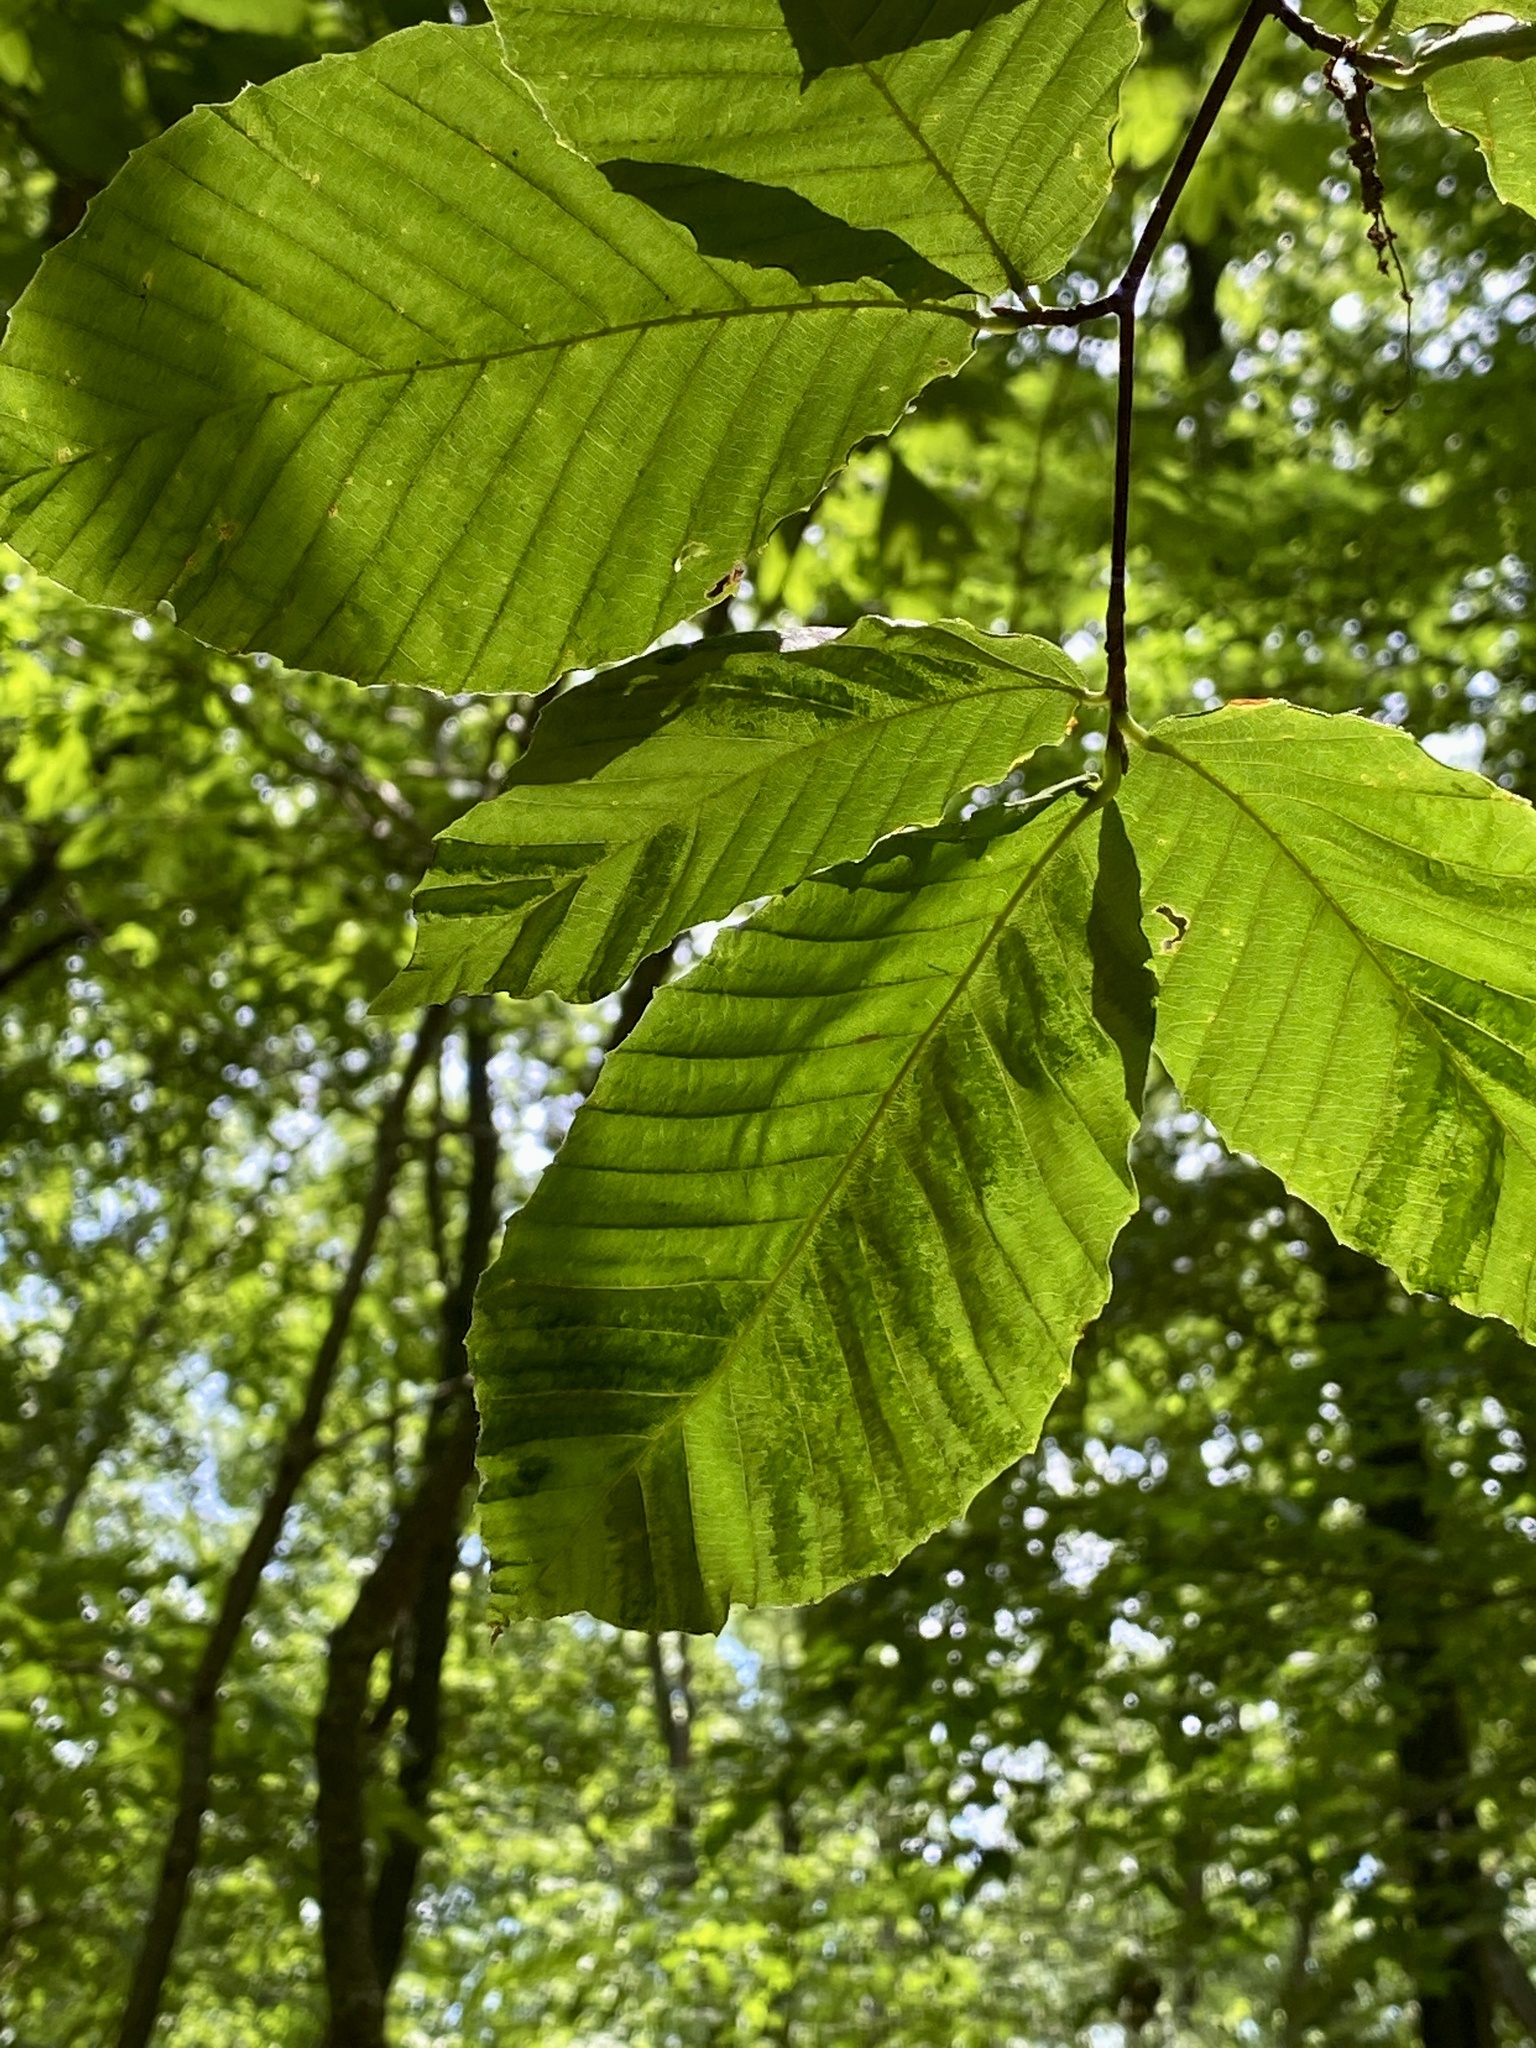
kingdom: Animalia
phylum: Nematoda
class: Chromadorea
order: Rhabditida
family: Anguinidae
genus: Litylenchus
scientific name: Litylenchus crenatae
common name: Beech leaf disease
